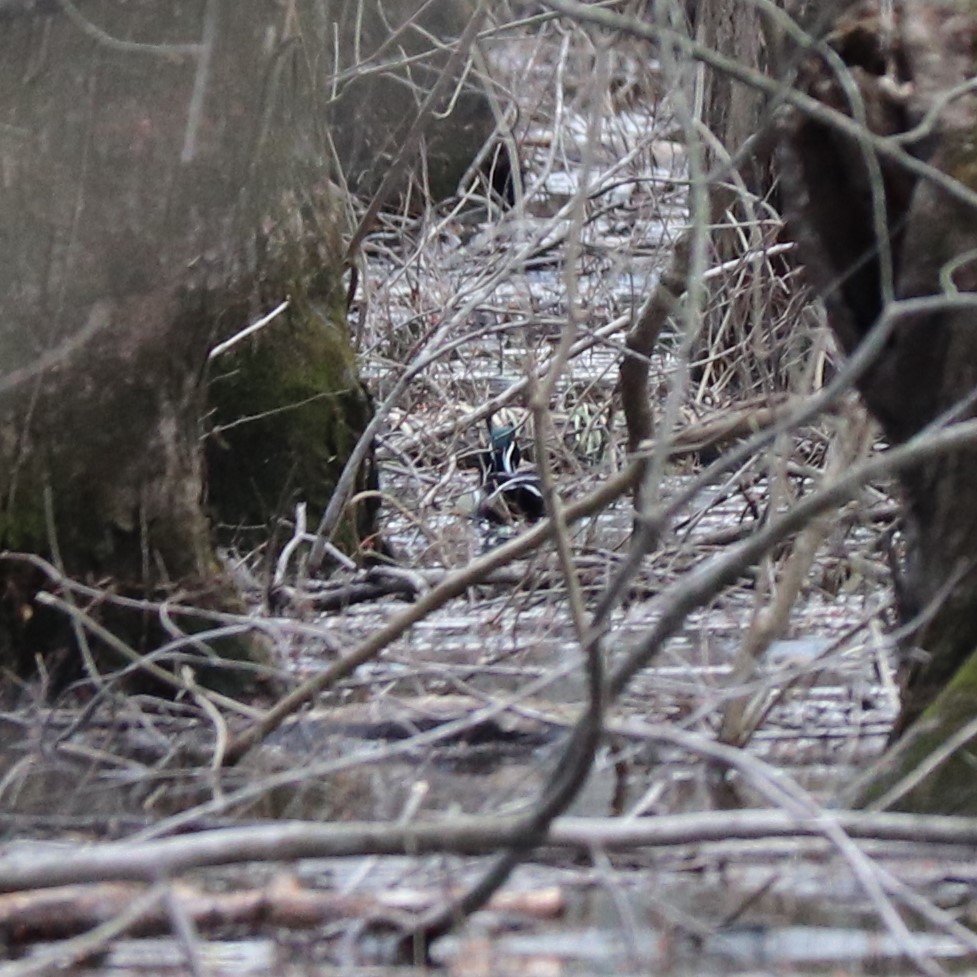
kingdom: Animalia
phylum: Chordata
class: Aves
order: Anseriformes
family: Anatidae
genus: Aix
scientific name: Aix sponsa
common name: Wood duck
